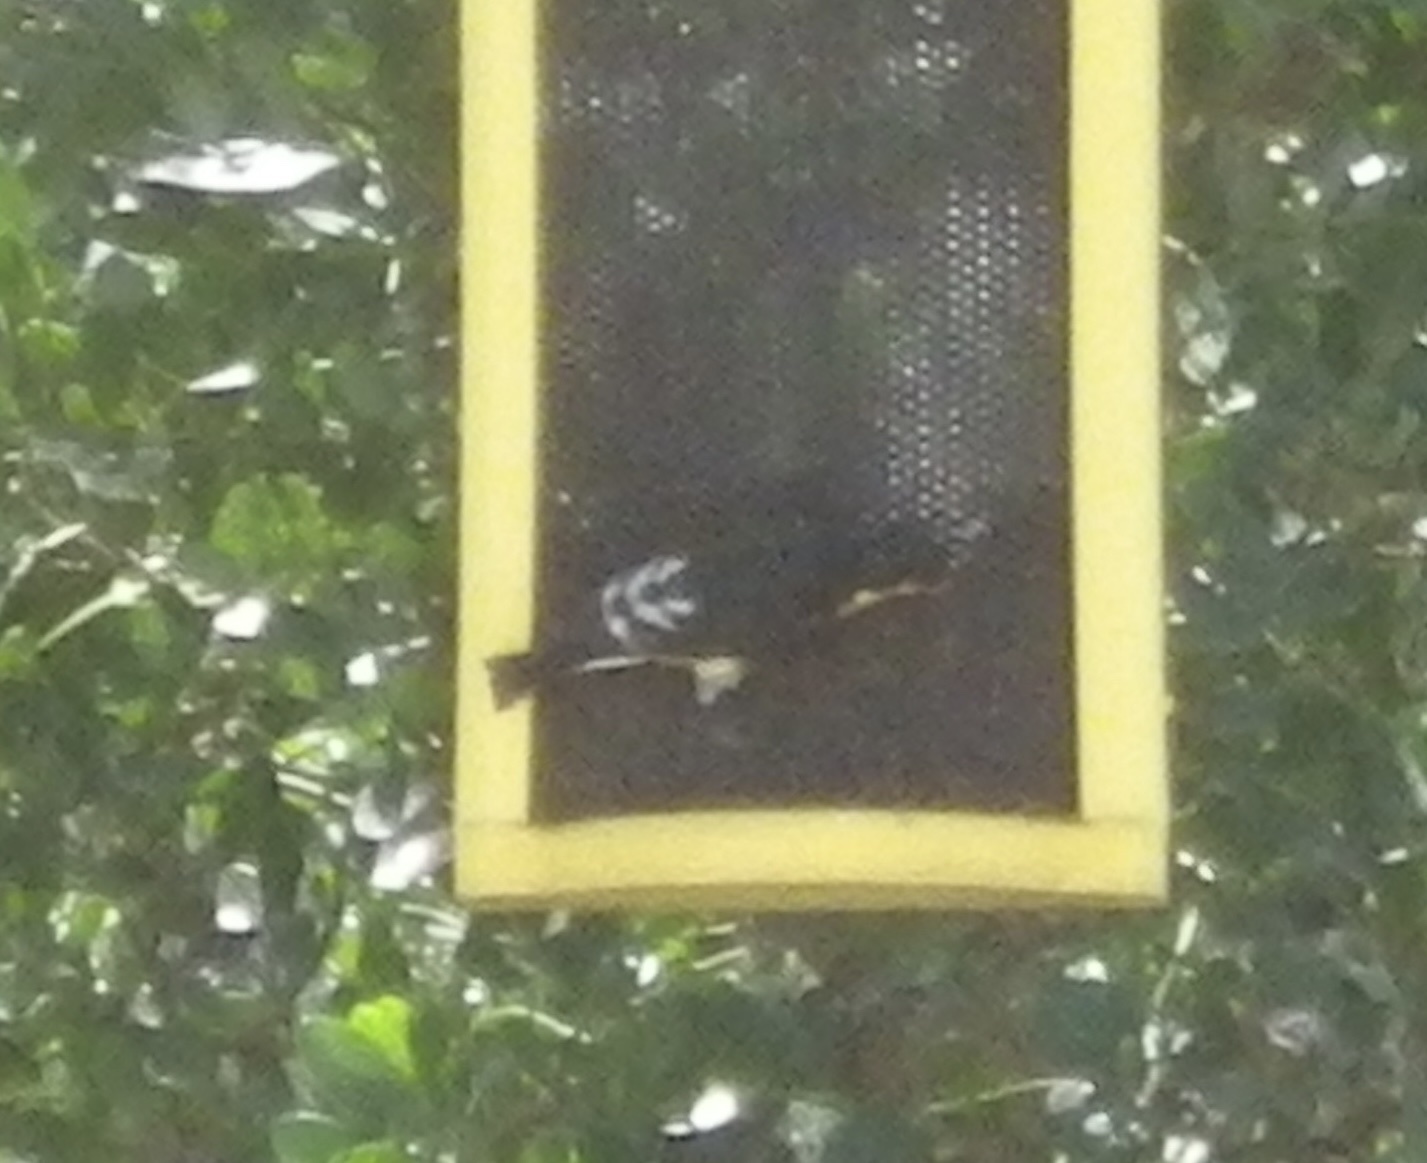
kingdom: Animalia
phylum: Chordata
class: Aves
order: Passeriformes
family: Fringillidae
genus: Spinus
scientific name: Spinus psaltria
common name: Lesser goldfinch
